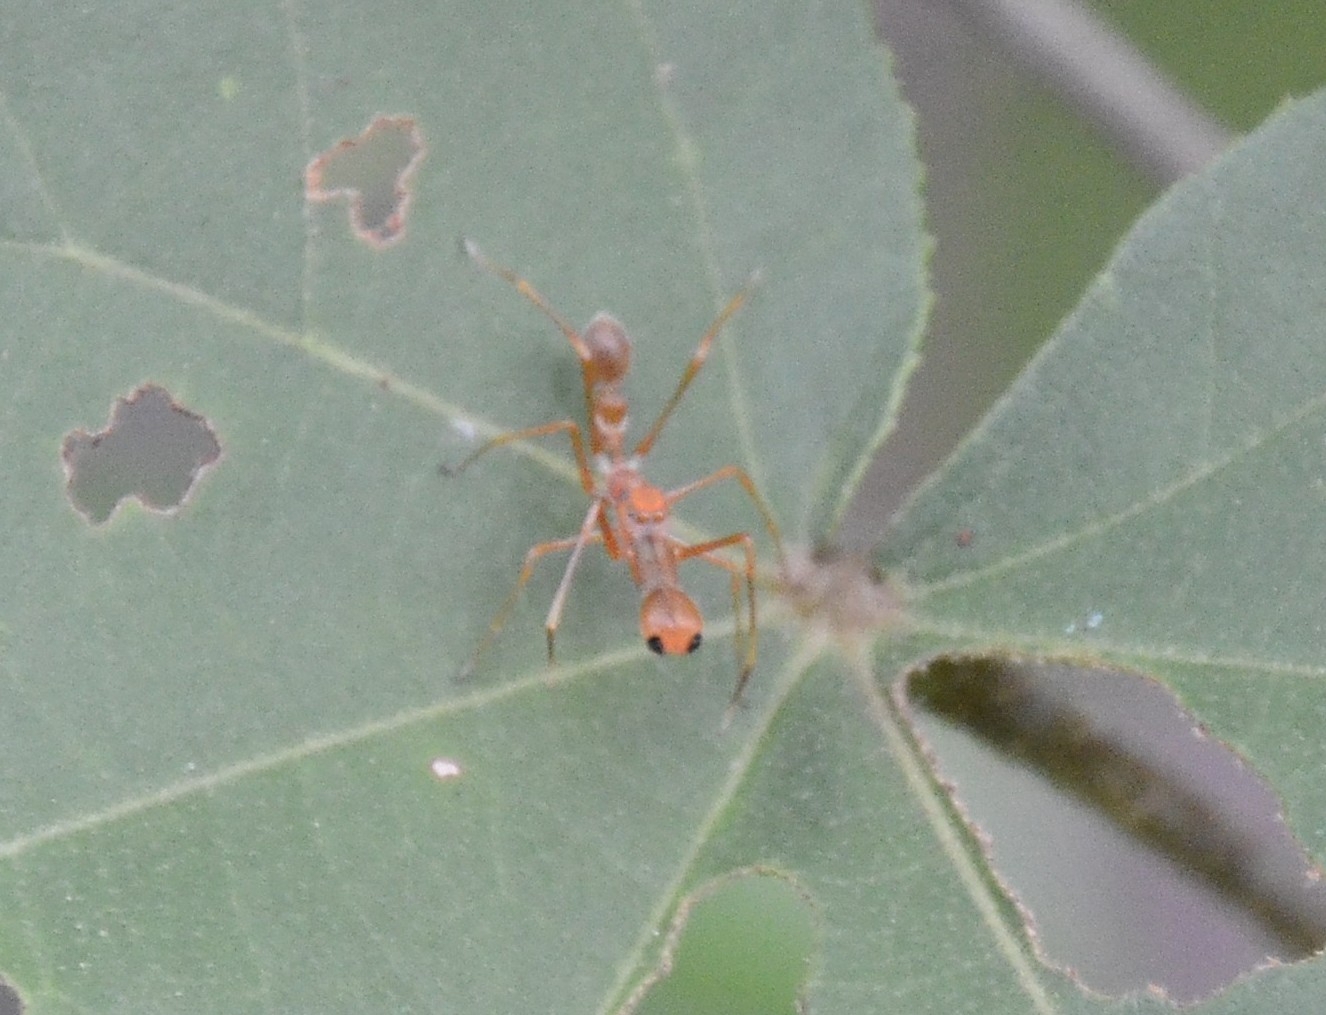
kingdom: Animalia
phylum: Arthropoda
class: Arachnida
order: Araneae
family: Salticidae
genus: Myrmaplata
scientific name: Myrmaplata plataleoides
